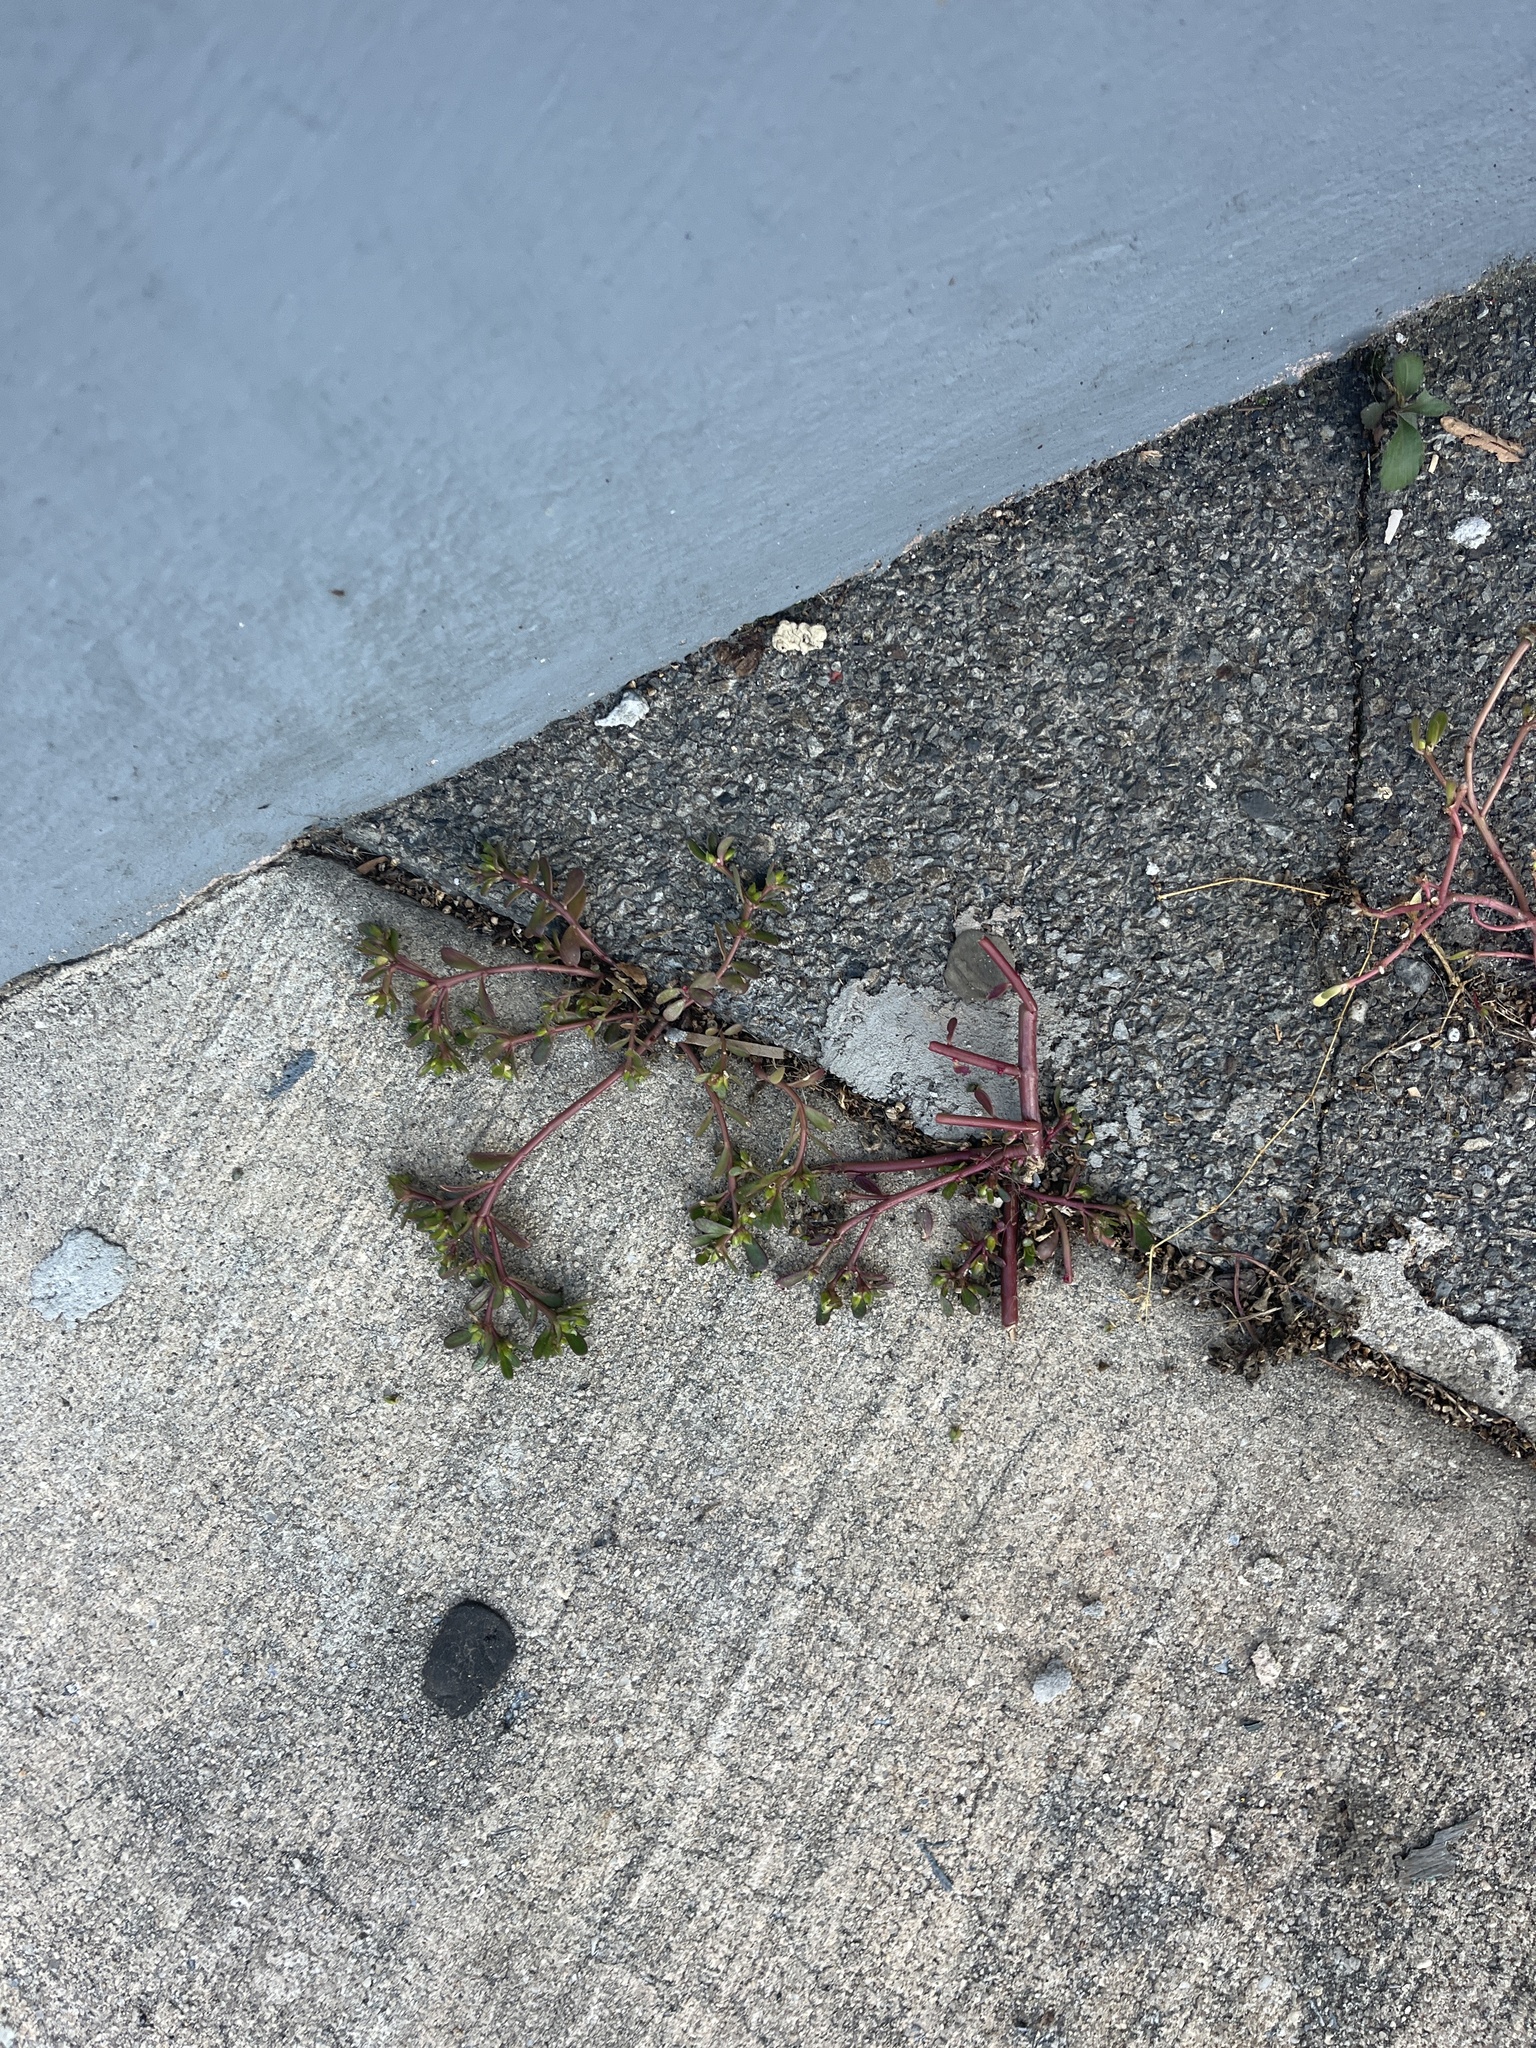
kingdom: Plantae
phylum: Tracheophyta
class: Magnoliopsida
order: Caryophyllales
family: Portulacaceae
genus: Portulaca
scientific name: Portulaca oleracea
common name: Common purslane
